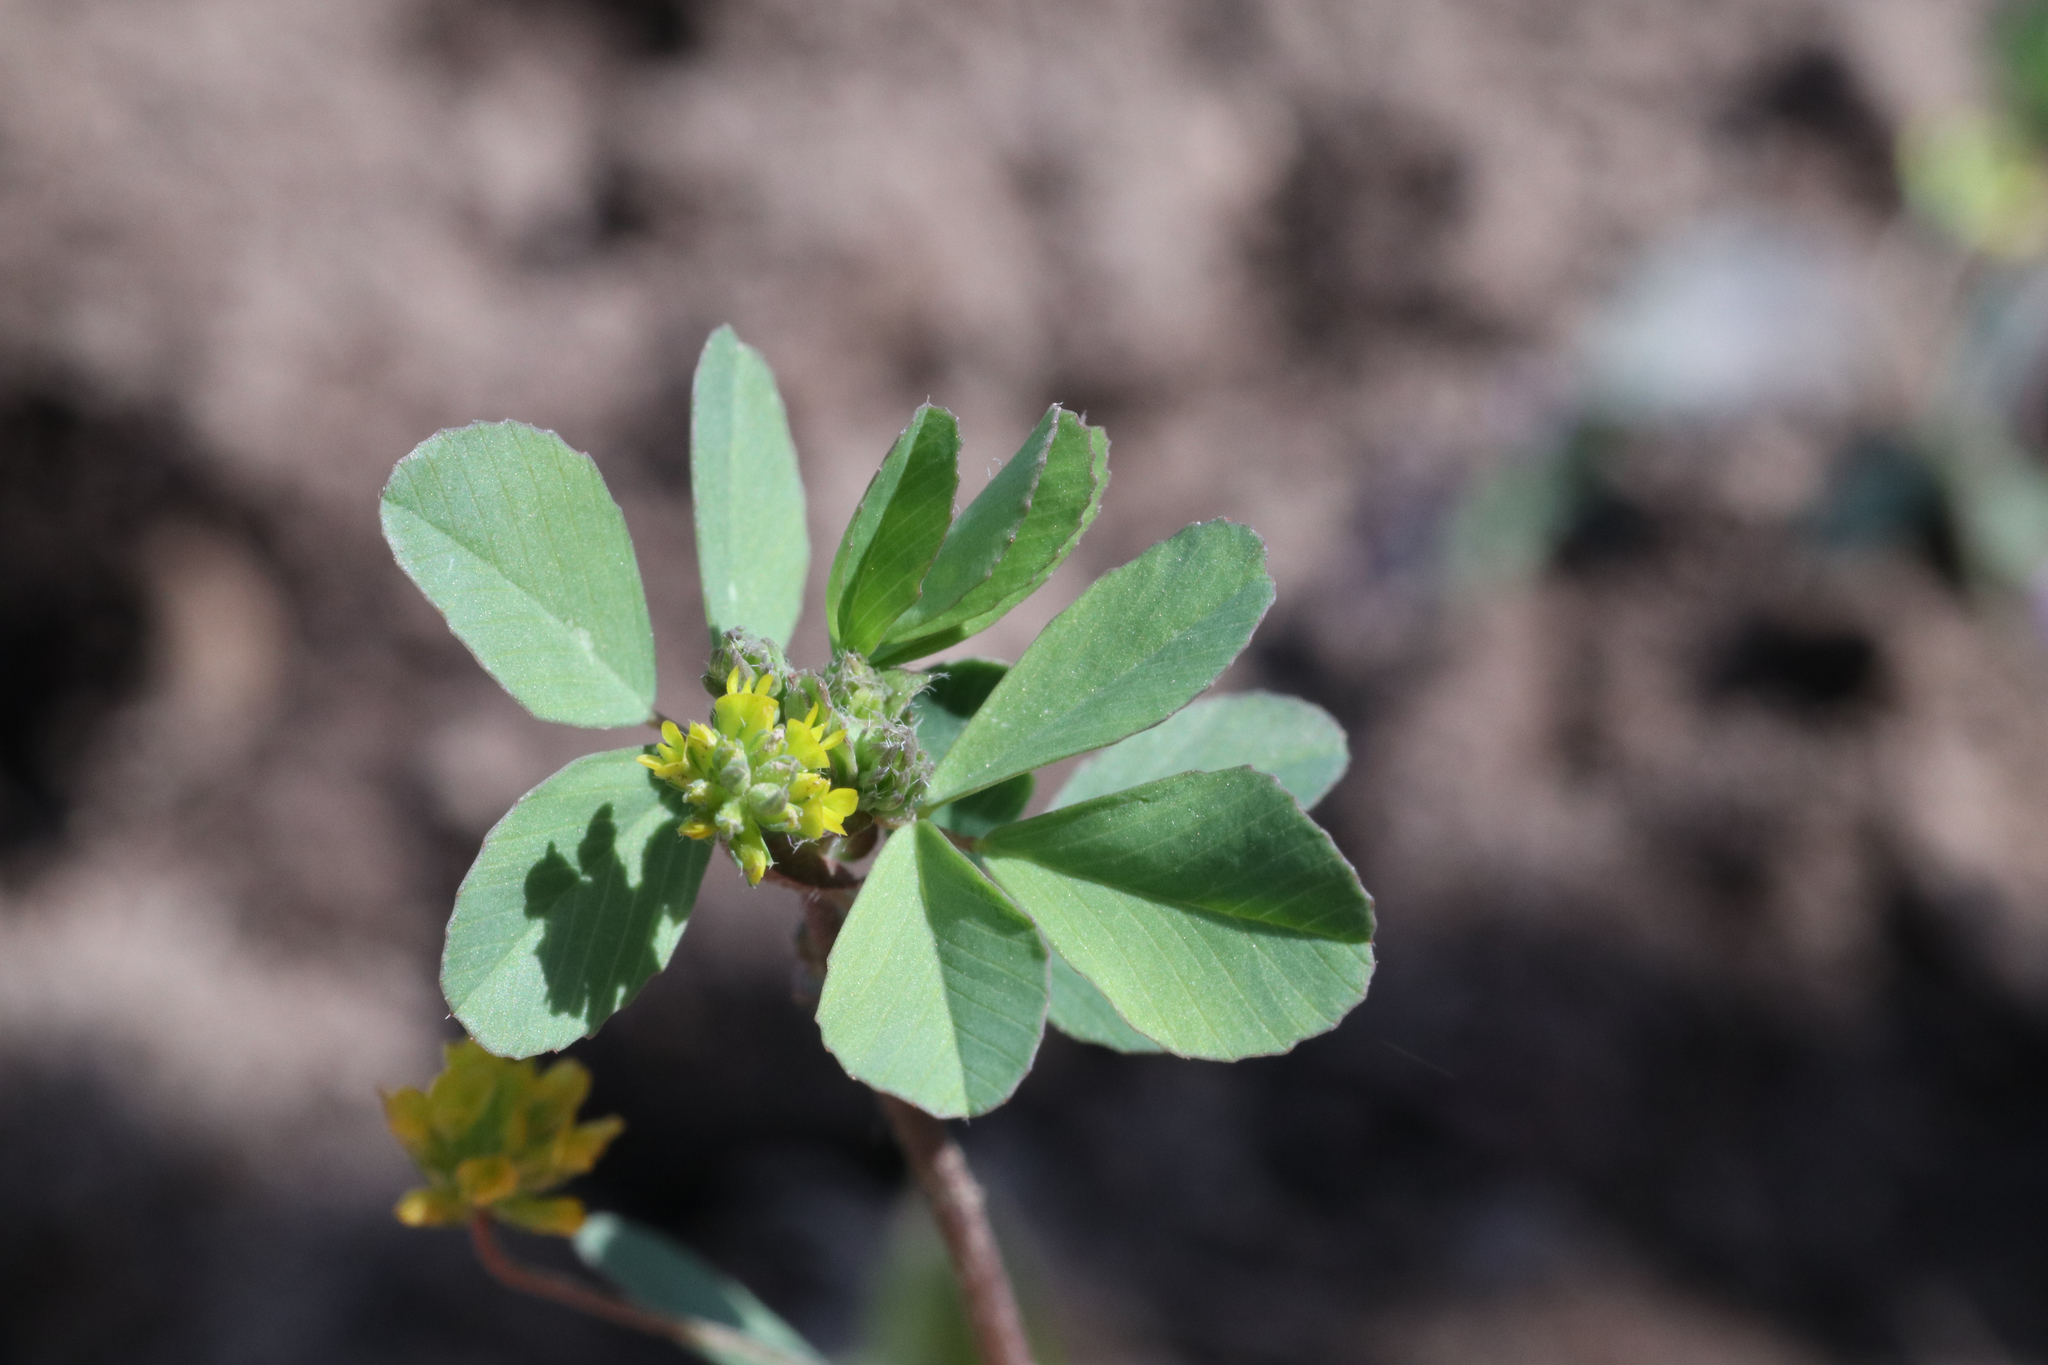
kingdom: Plantae
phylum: Tracheophyta
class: Magnoliopsida
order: Fabales
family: Fabaceae
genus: Trifolium
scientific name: Trifolium dubium
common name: Suckling clover
